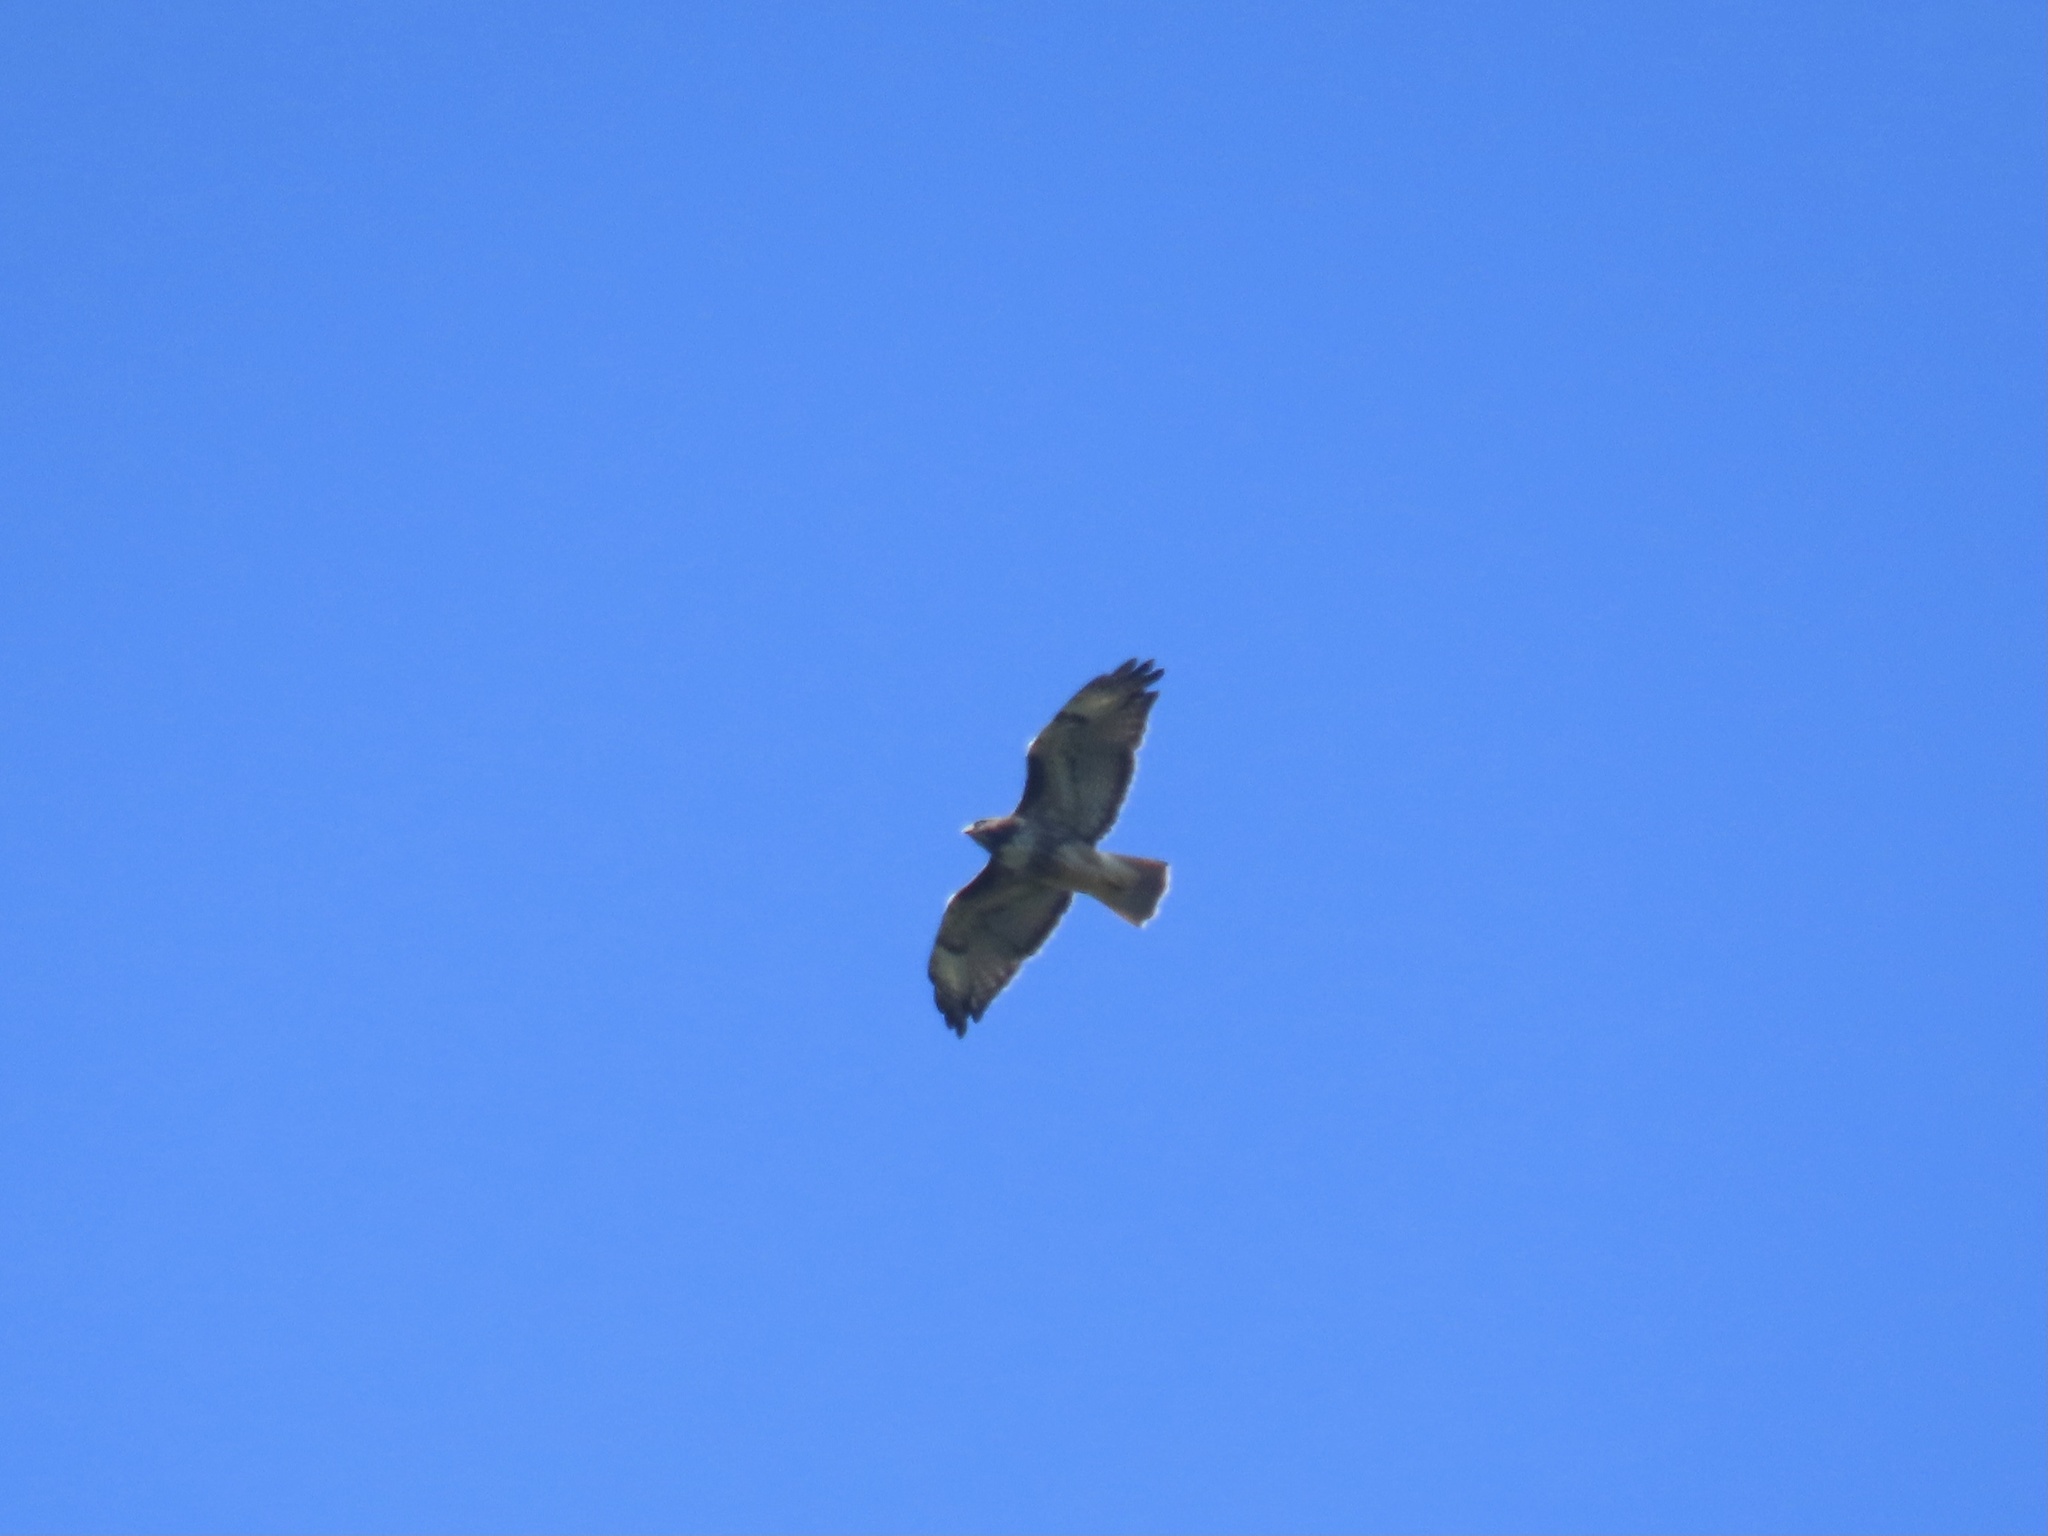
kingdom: Animalia
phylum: Chordata
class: Aves
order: Accipitriformes
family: Accipitridae
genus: Buteo
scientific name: Buteo jamaicensis
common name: Red-tailed hawk
